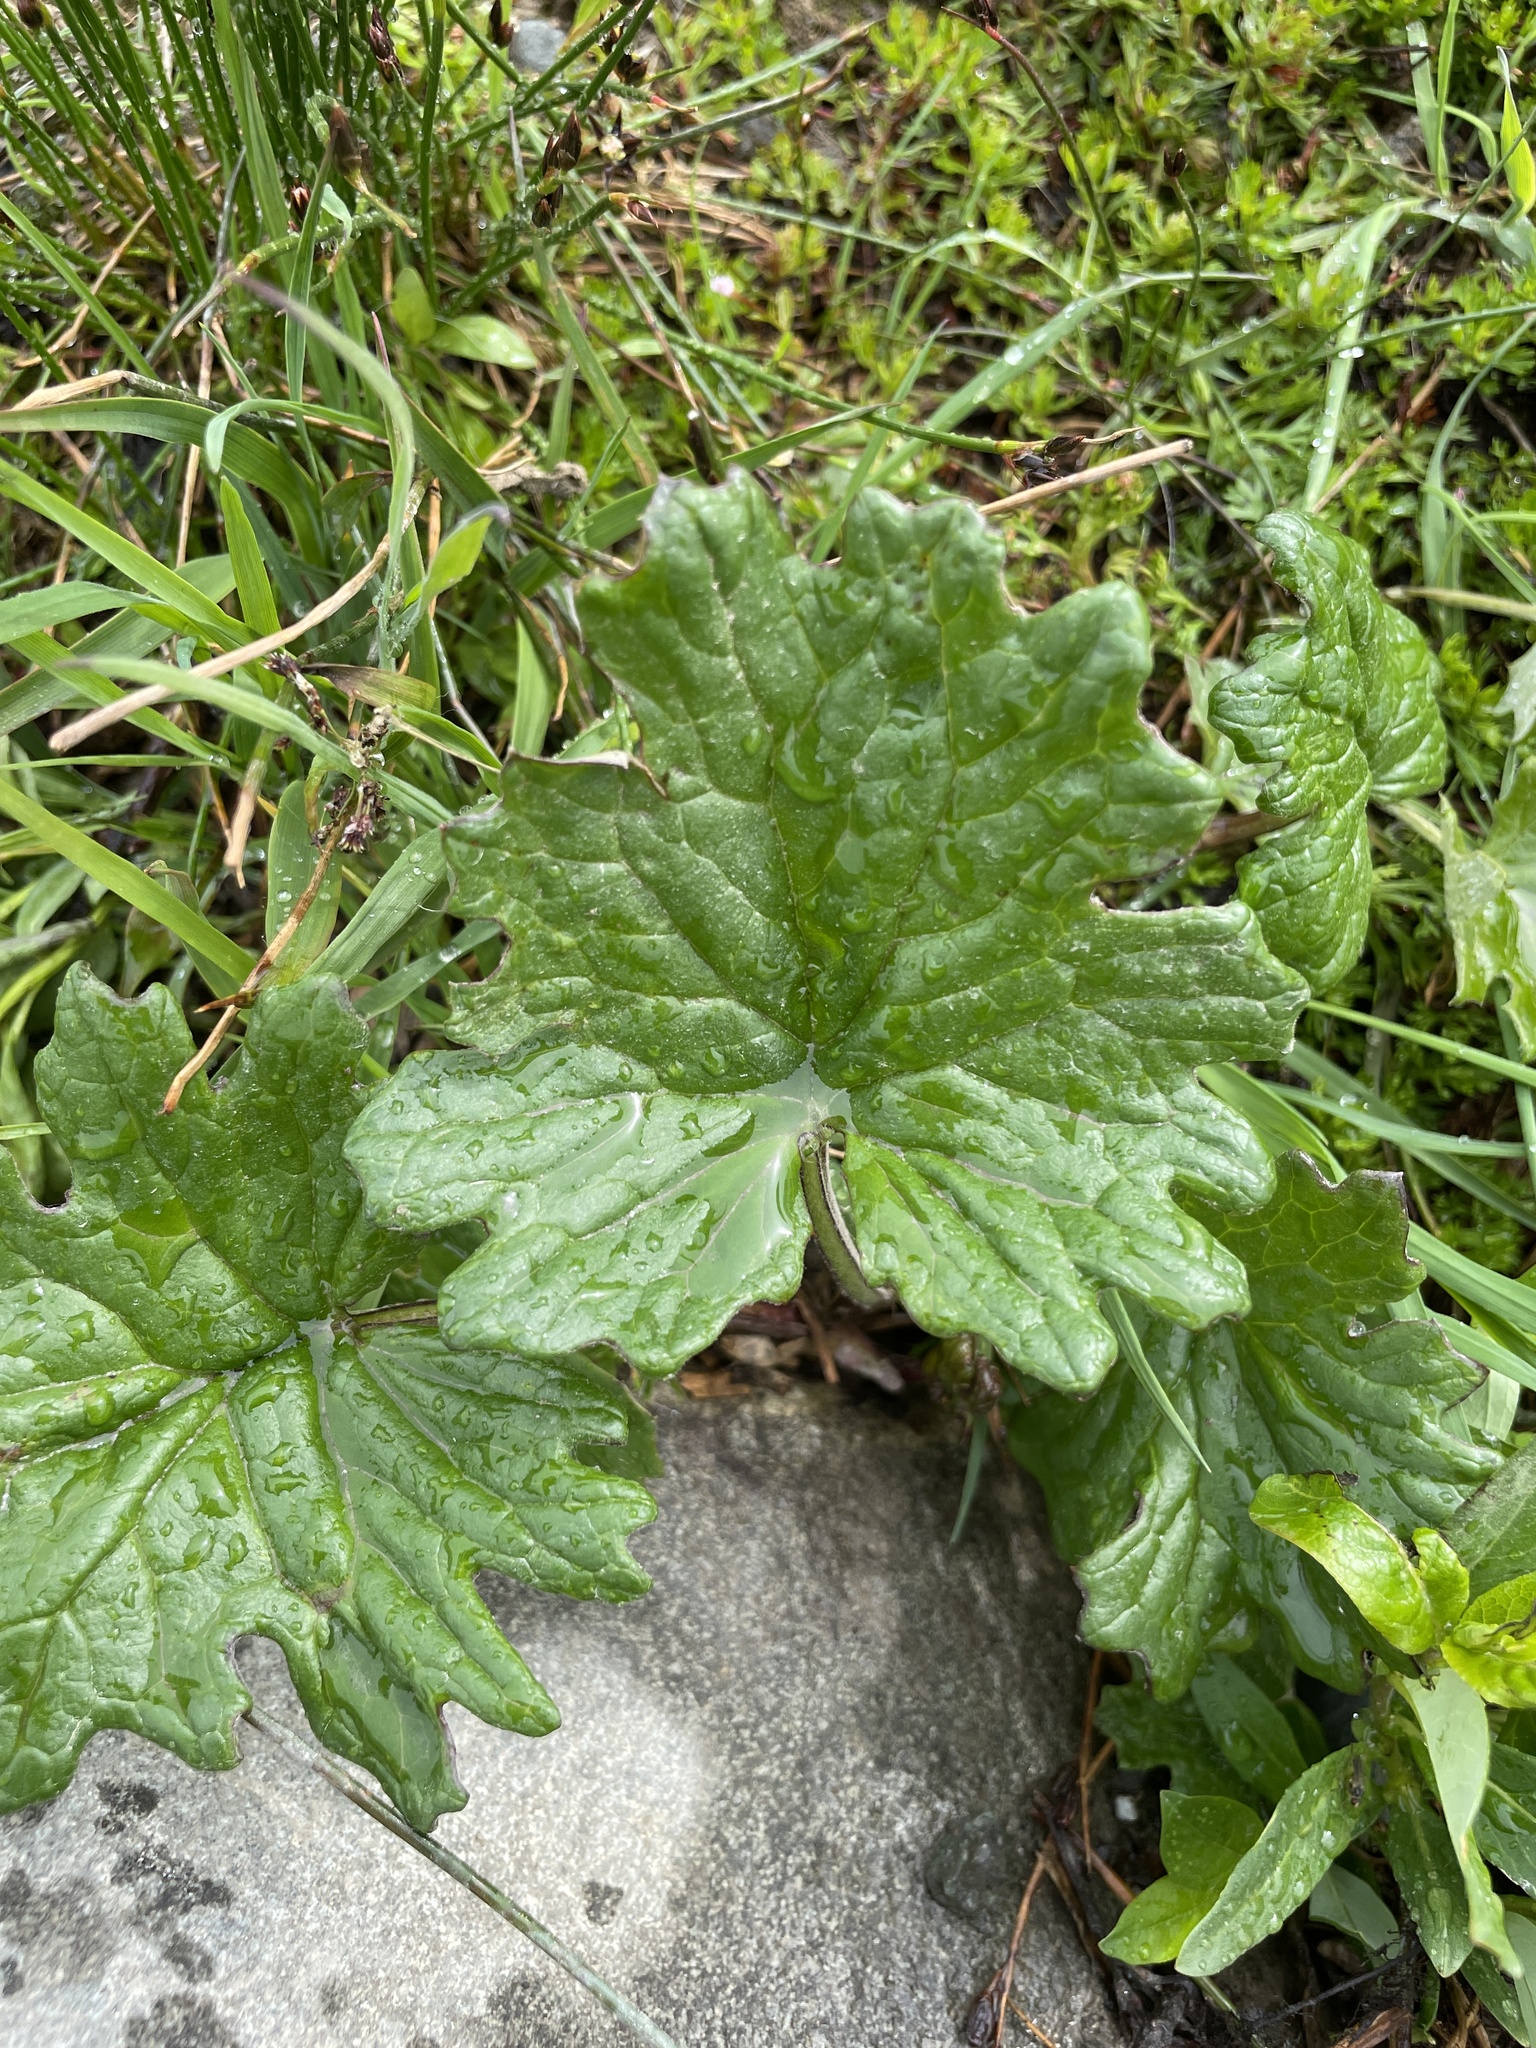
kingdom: Plantae
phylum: Tracheophyta
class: Magnoliopsida
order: Asterales
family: Asteraceae
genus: Petasites
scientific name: Petasites frigidus
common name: Arctic butterbur
